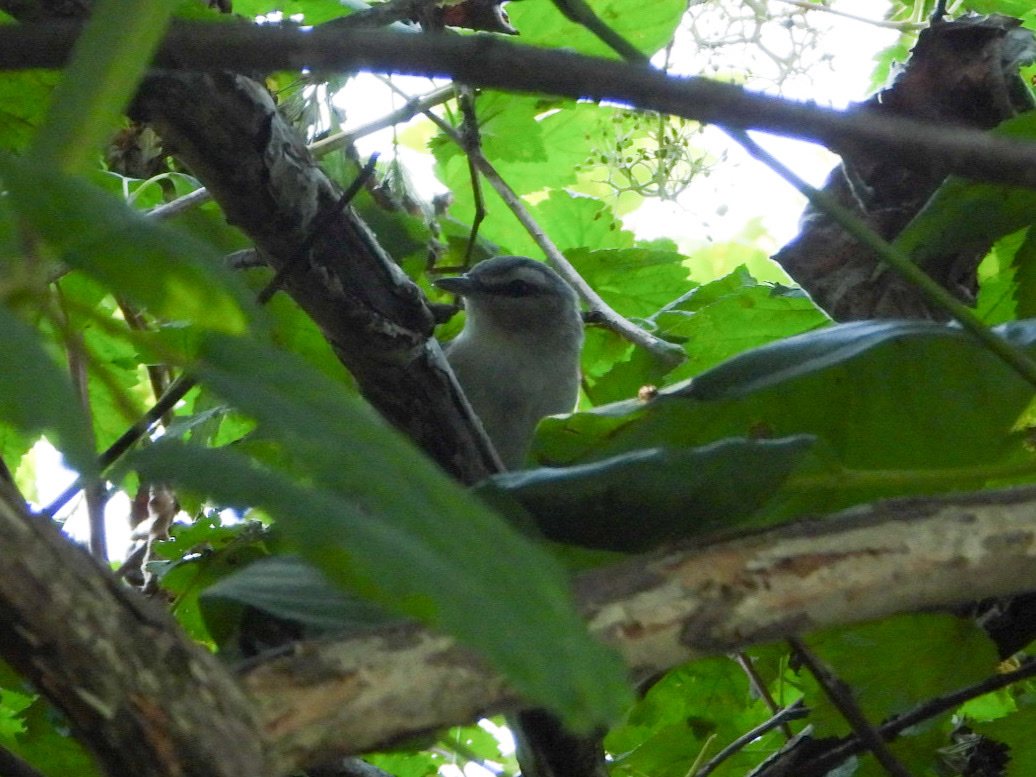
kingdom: Animalia
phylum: Chordata
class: Aves
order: Passeriformes
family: Vireonidae
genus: Vireo
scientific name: Vireo olivaceus
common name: Red-eyed vireo
